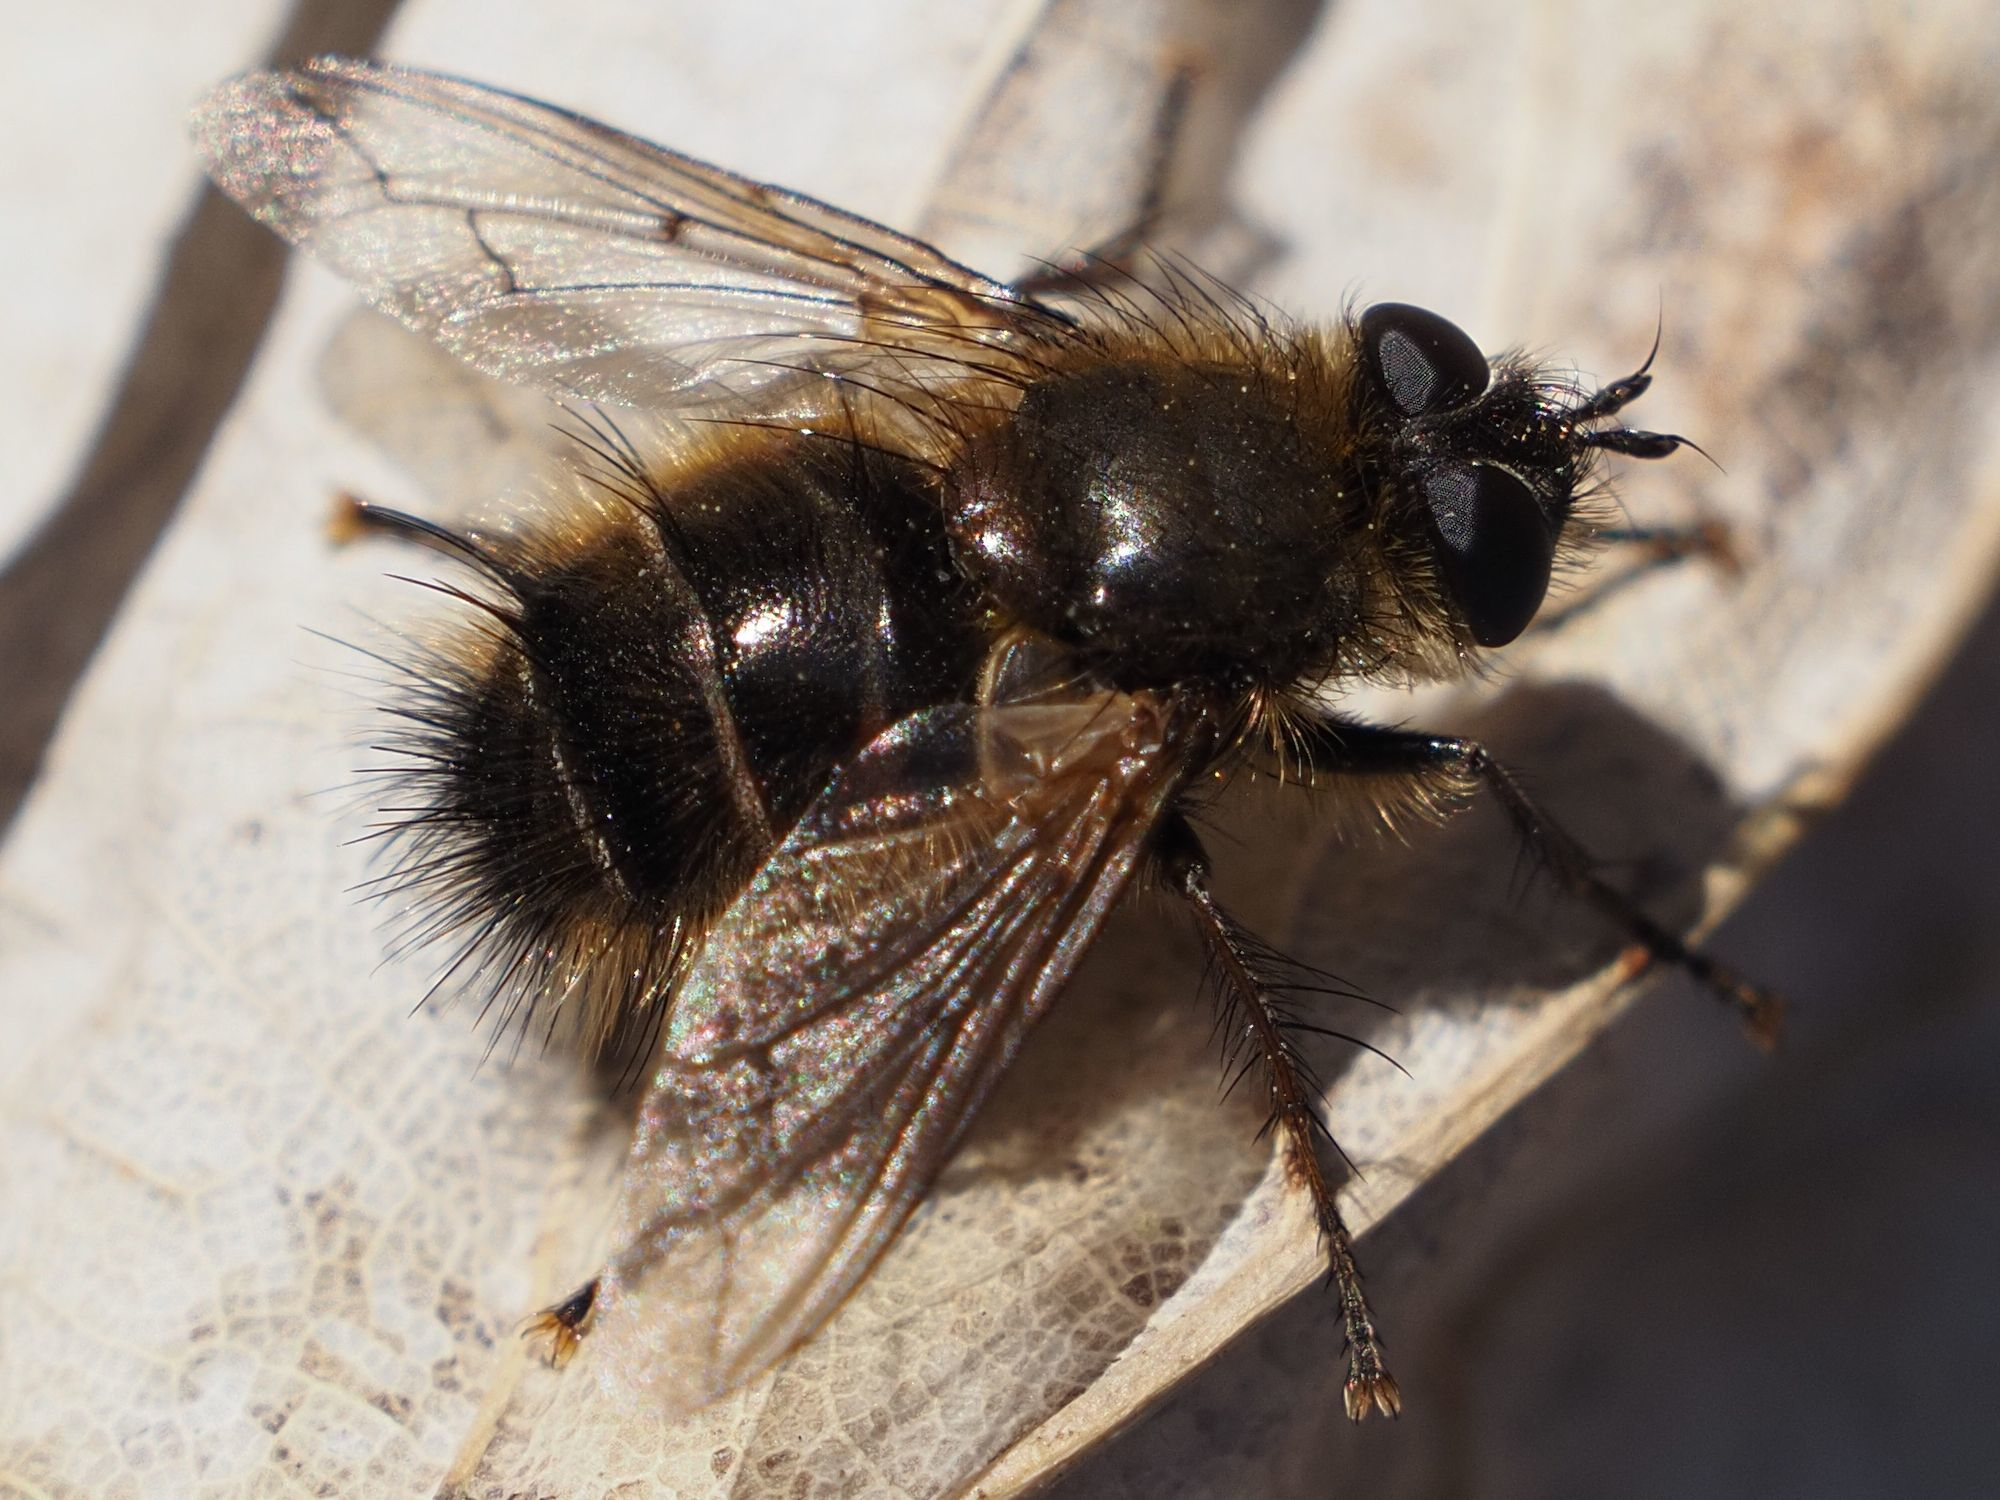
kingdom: Animalia
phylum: Arthropoda
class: Insecta
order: Diptera
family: Tachinidae
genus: Tachina
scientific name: Tachina ursina
